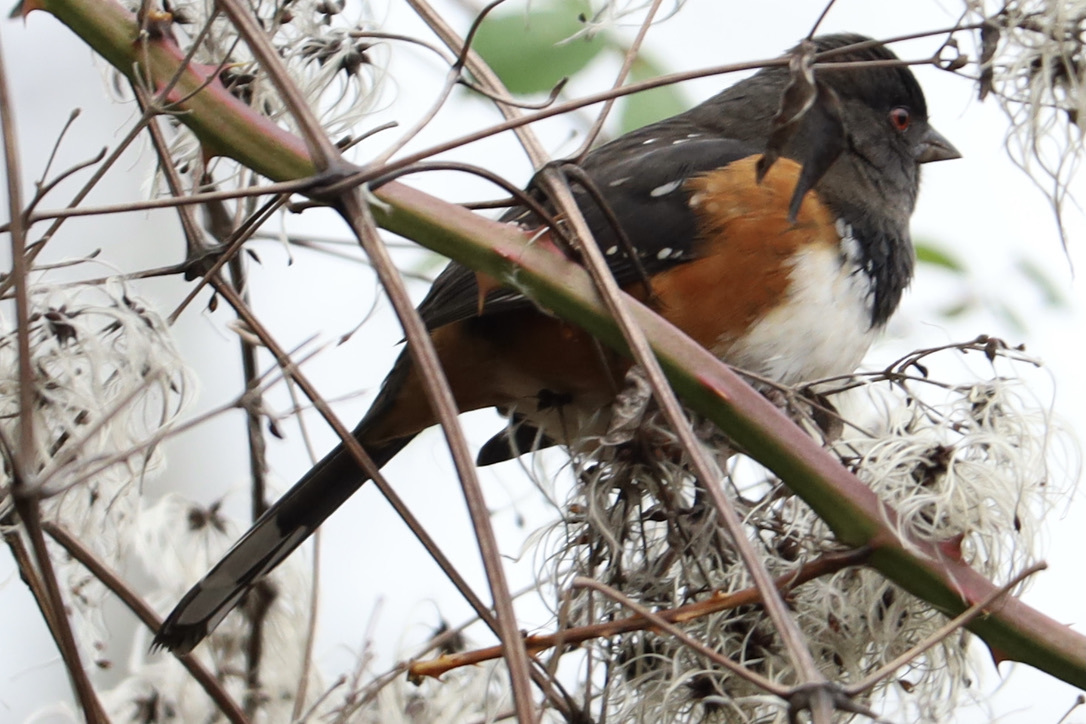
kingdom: Animalia
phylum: Chordata
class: Aves
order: Passeriformes
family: Passerellidae
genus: Pipilo
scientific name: Pipilo maculatus
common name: Spotted towhee
